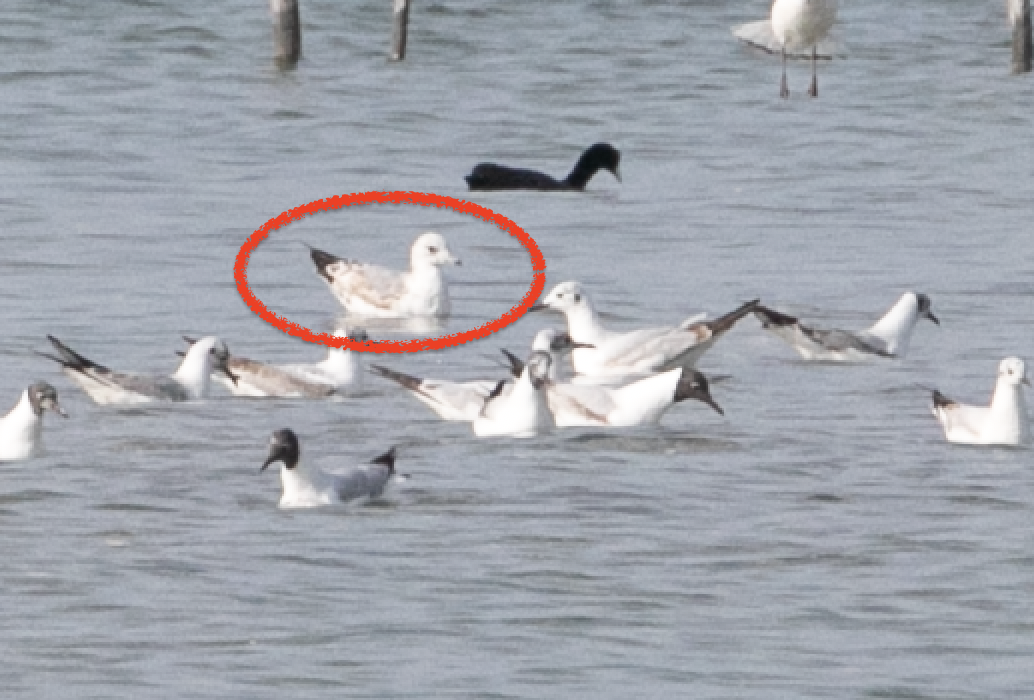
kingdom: Animalia
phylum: Chordata
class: Aves
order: Charadriiformes
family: Laridae
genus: Larus
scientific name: Larus canus
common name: Mew gull
